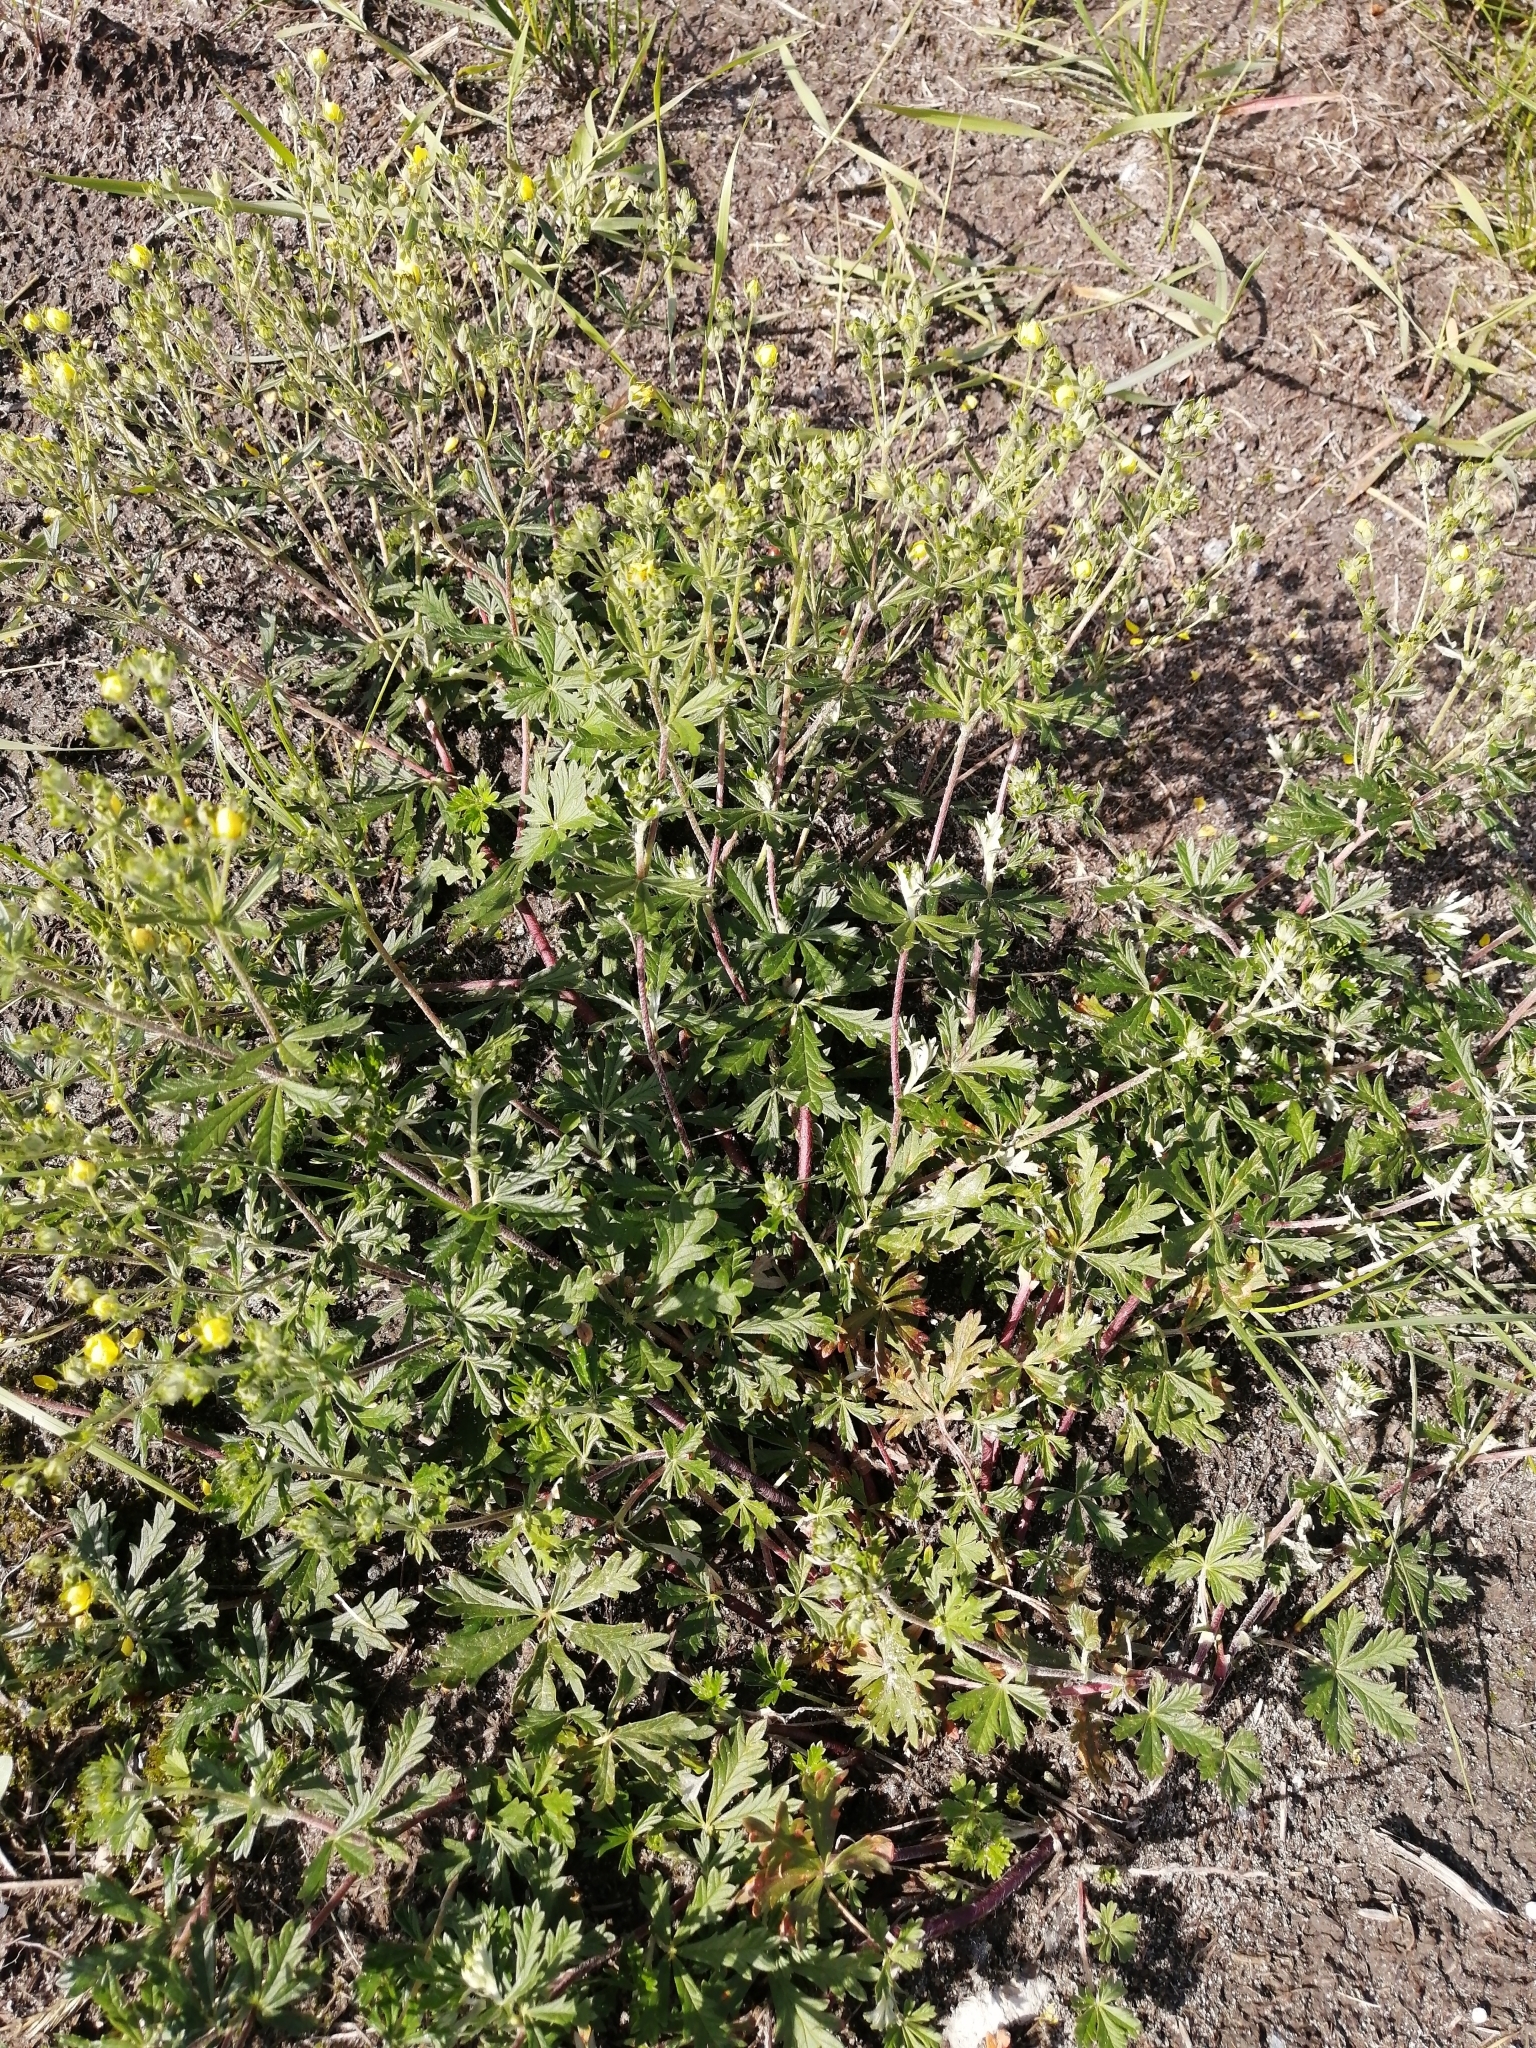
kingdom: Plantae
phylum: Tracheophyta
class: Magnoliopsida
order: Rosales
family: Rosaceae
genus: Potentilla
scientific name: Potentilla argentea
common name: Hoary cinquefoil
